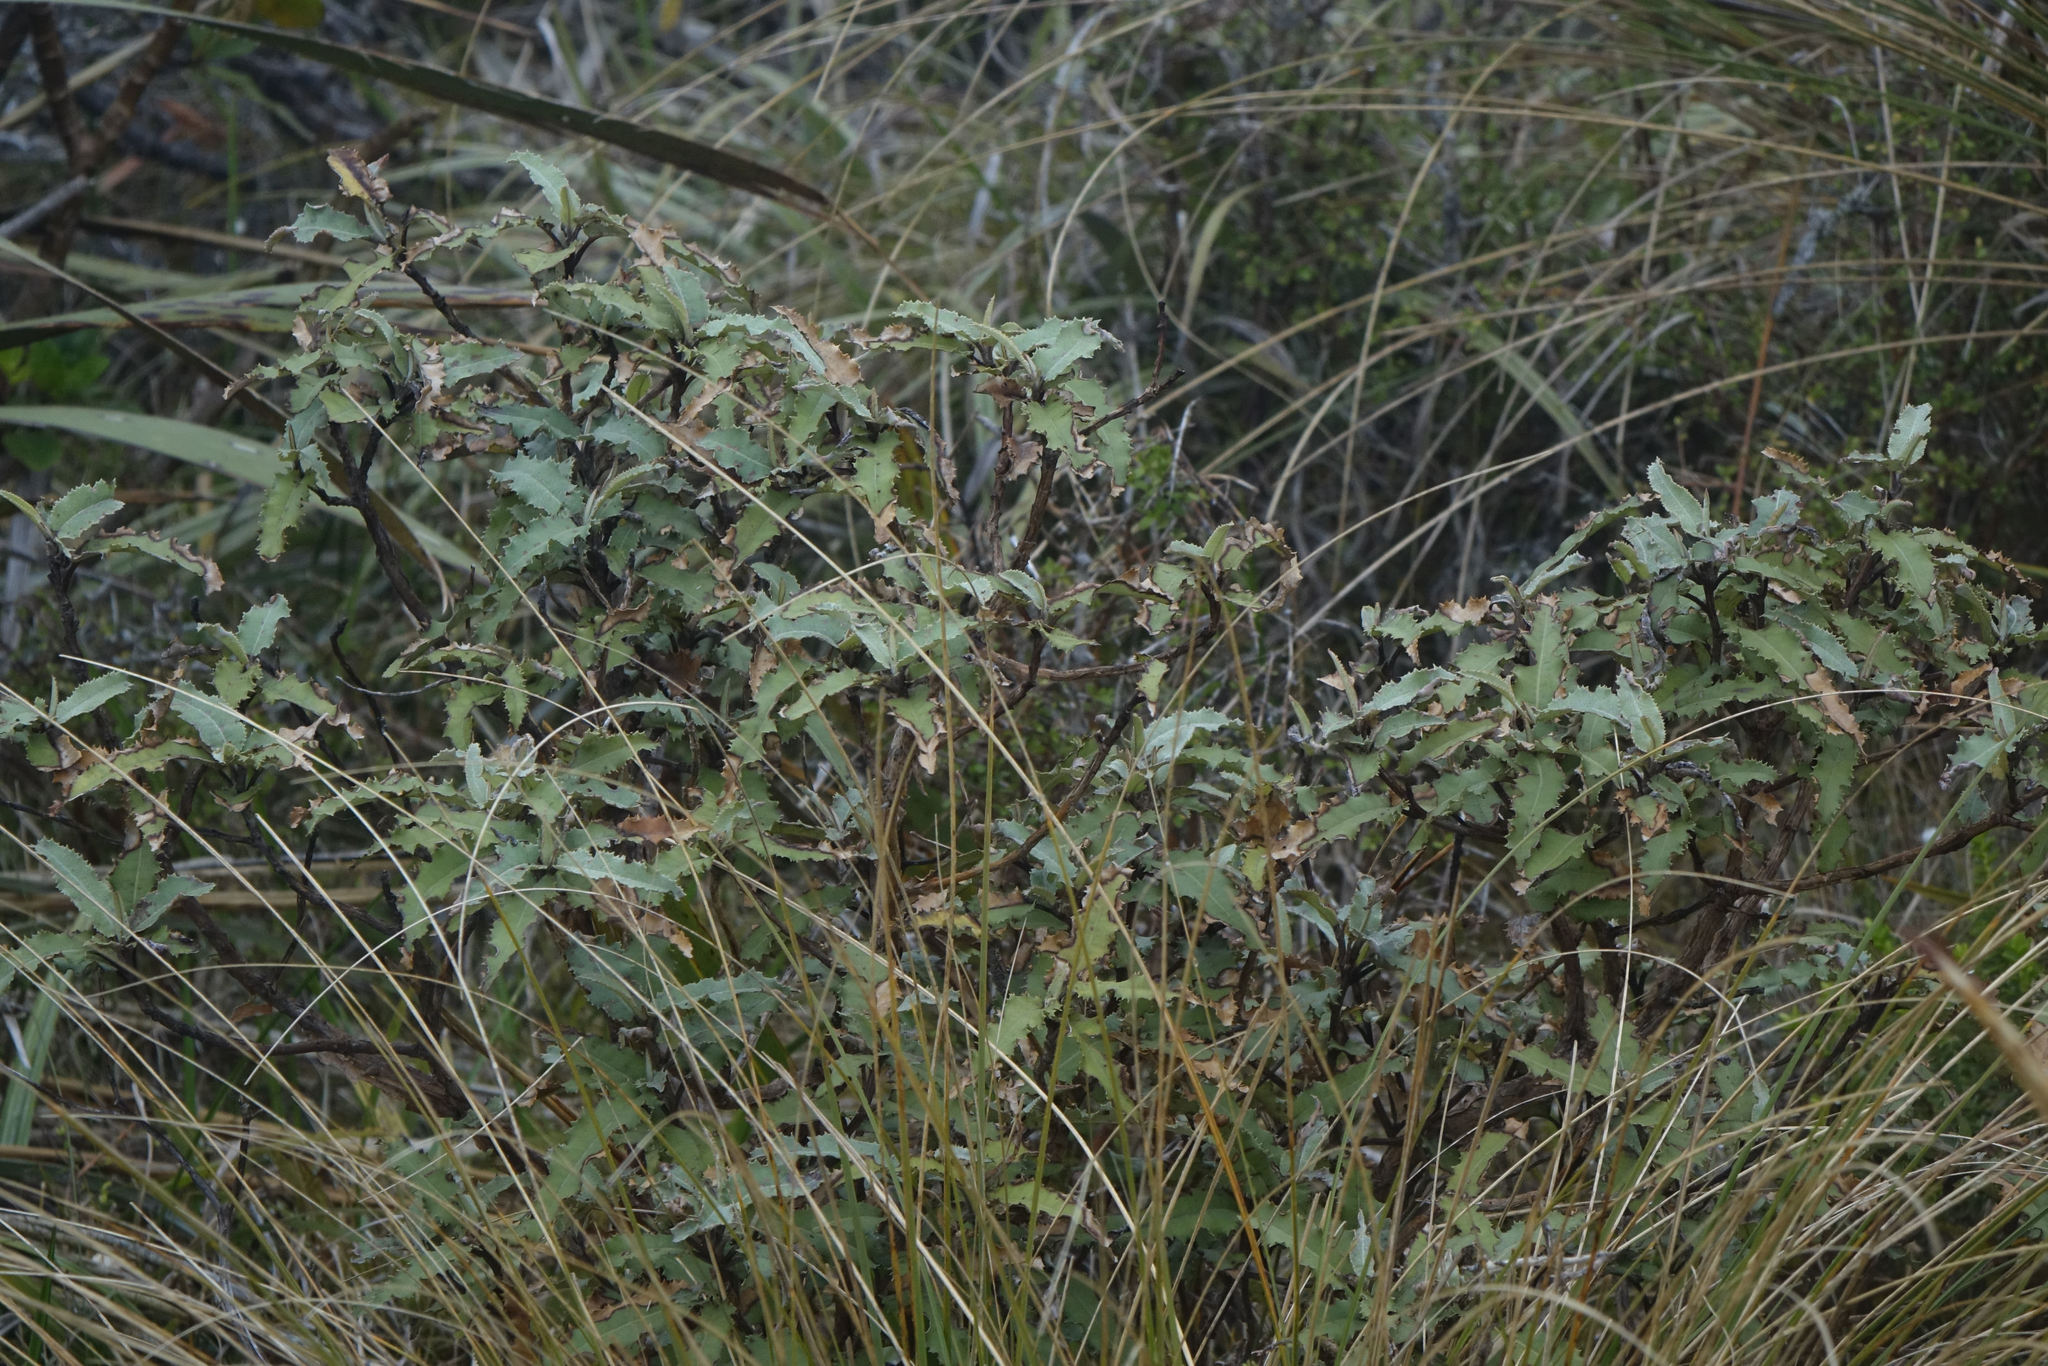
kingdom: Plantae
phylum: Tracheophyta
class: Magnoliopsida
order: Asterales
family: Asteraceae
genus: Olearia
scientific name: Olearia ilicifolia
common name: Maori-holly
